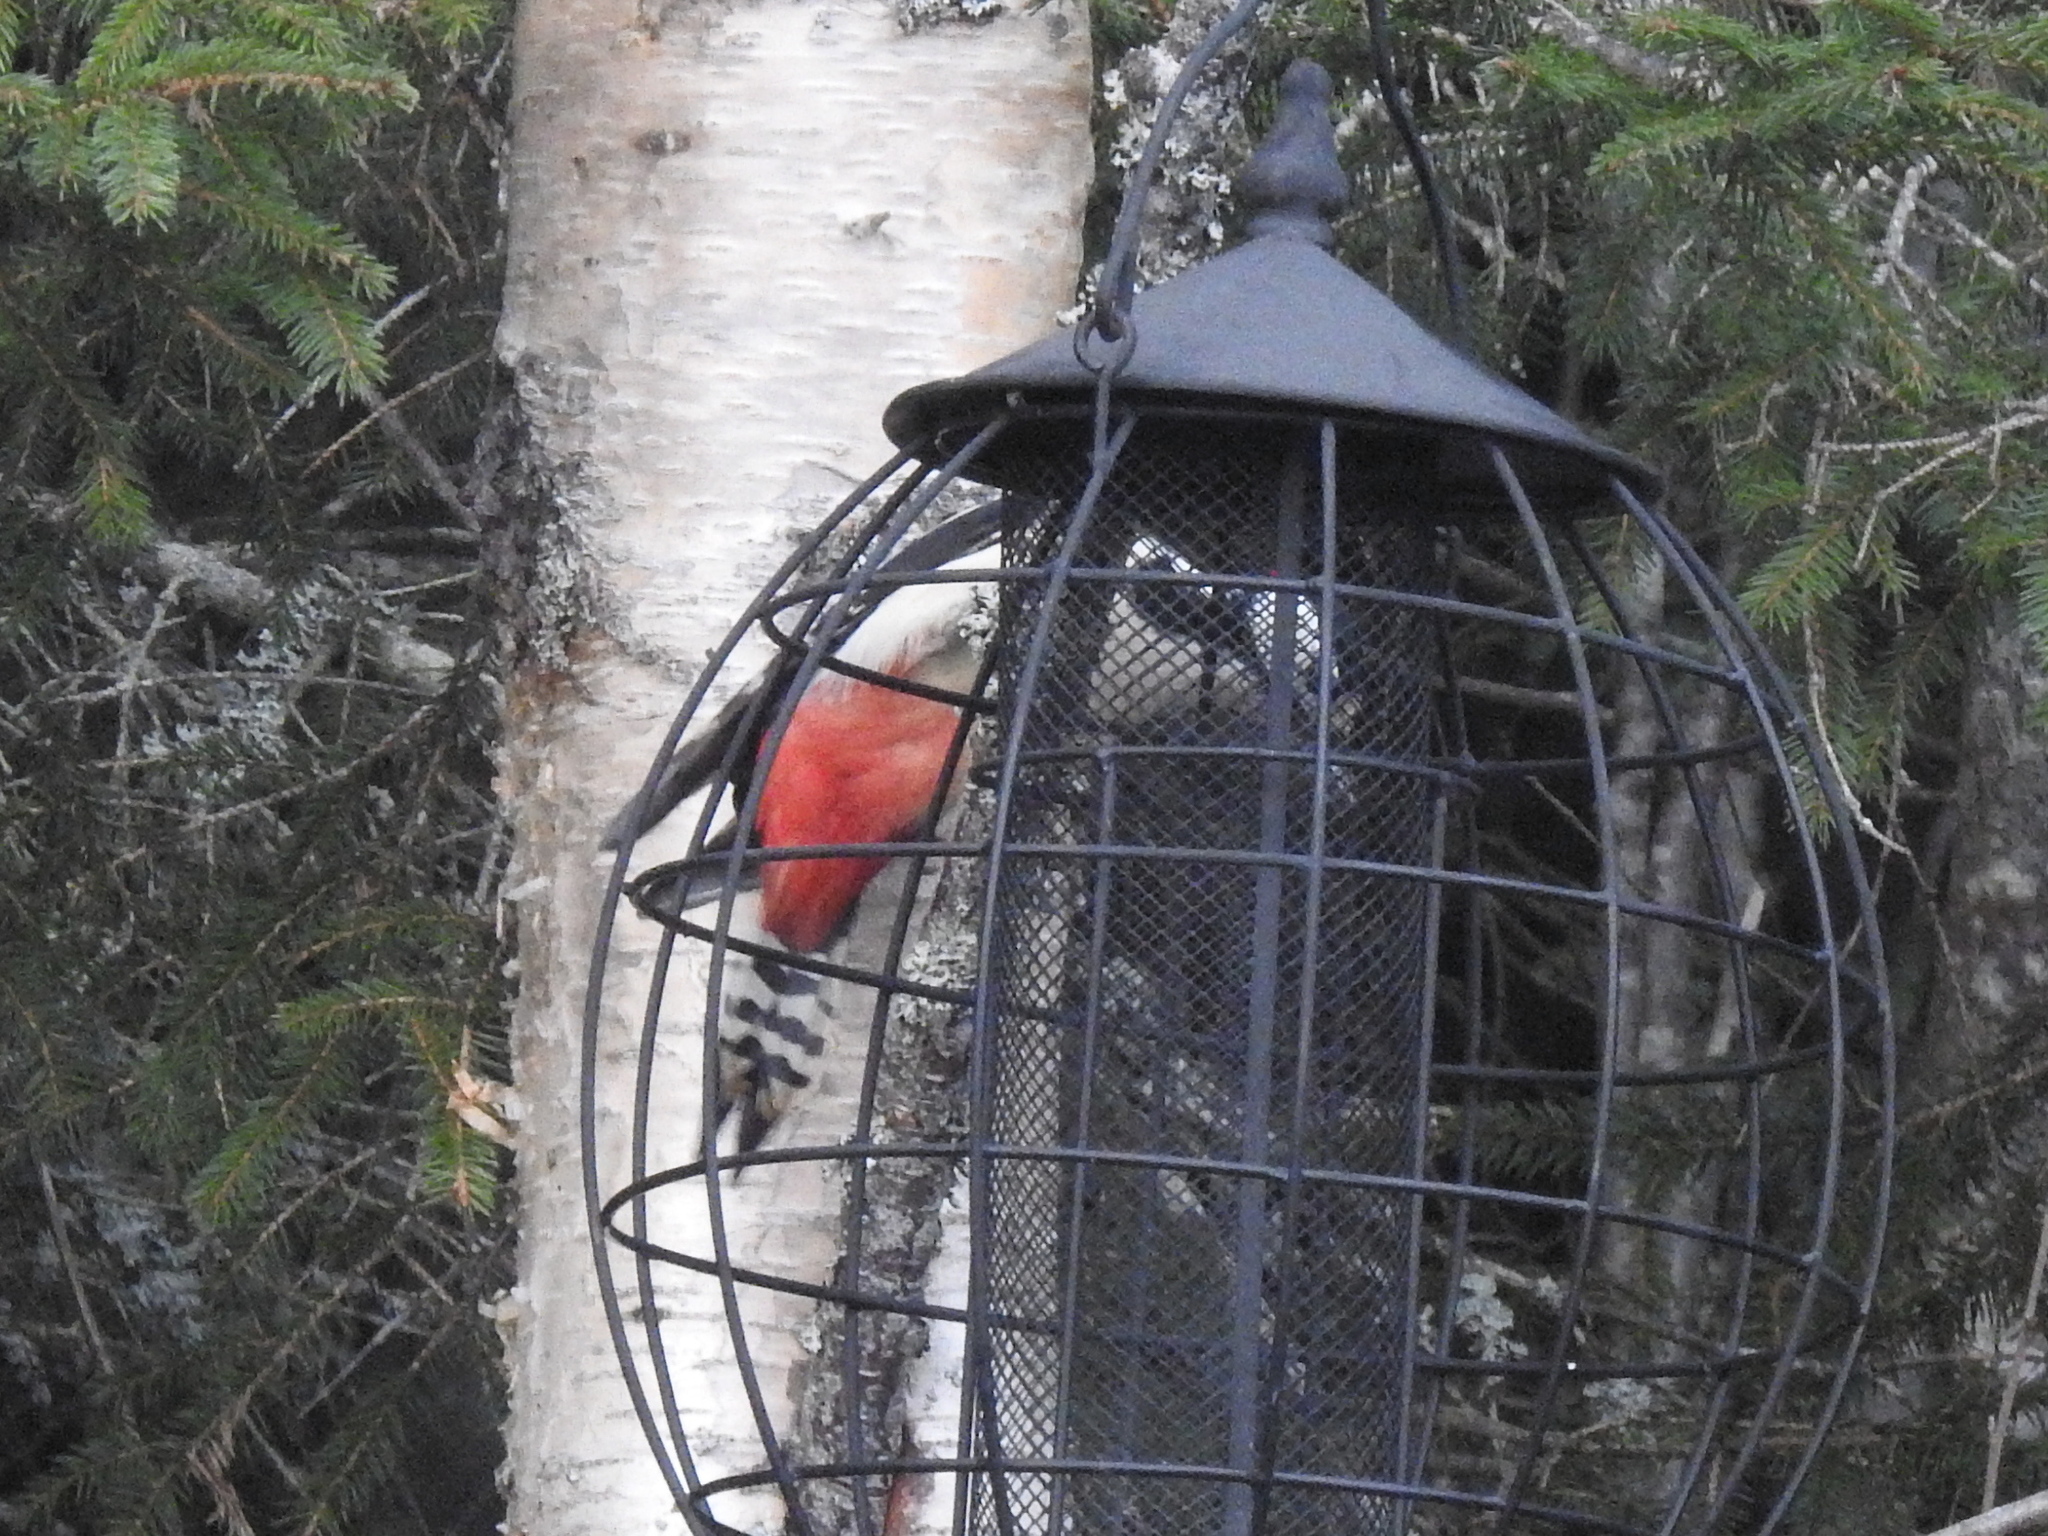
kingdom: Animalia
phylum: Chordata
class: Aves
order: Piciformes
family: Picidae
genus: Dendrocopos
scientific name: Dendrocopos major
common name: Great spotted woodpecker
